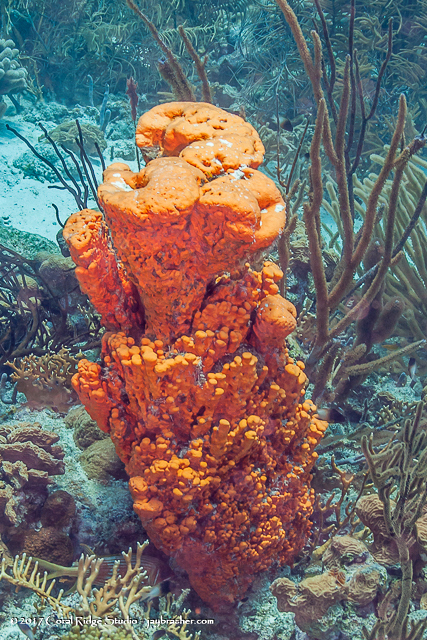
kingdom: Animalia
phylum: Porifera
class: Demospongiae
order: Agelasida
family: Agelasidae
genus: Agelas
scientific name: Agelas clathrodes
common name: Orange elephant ear sponge
